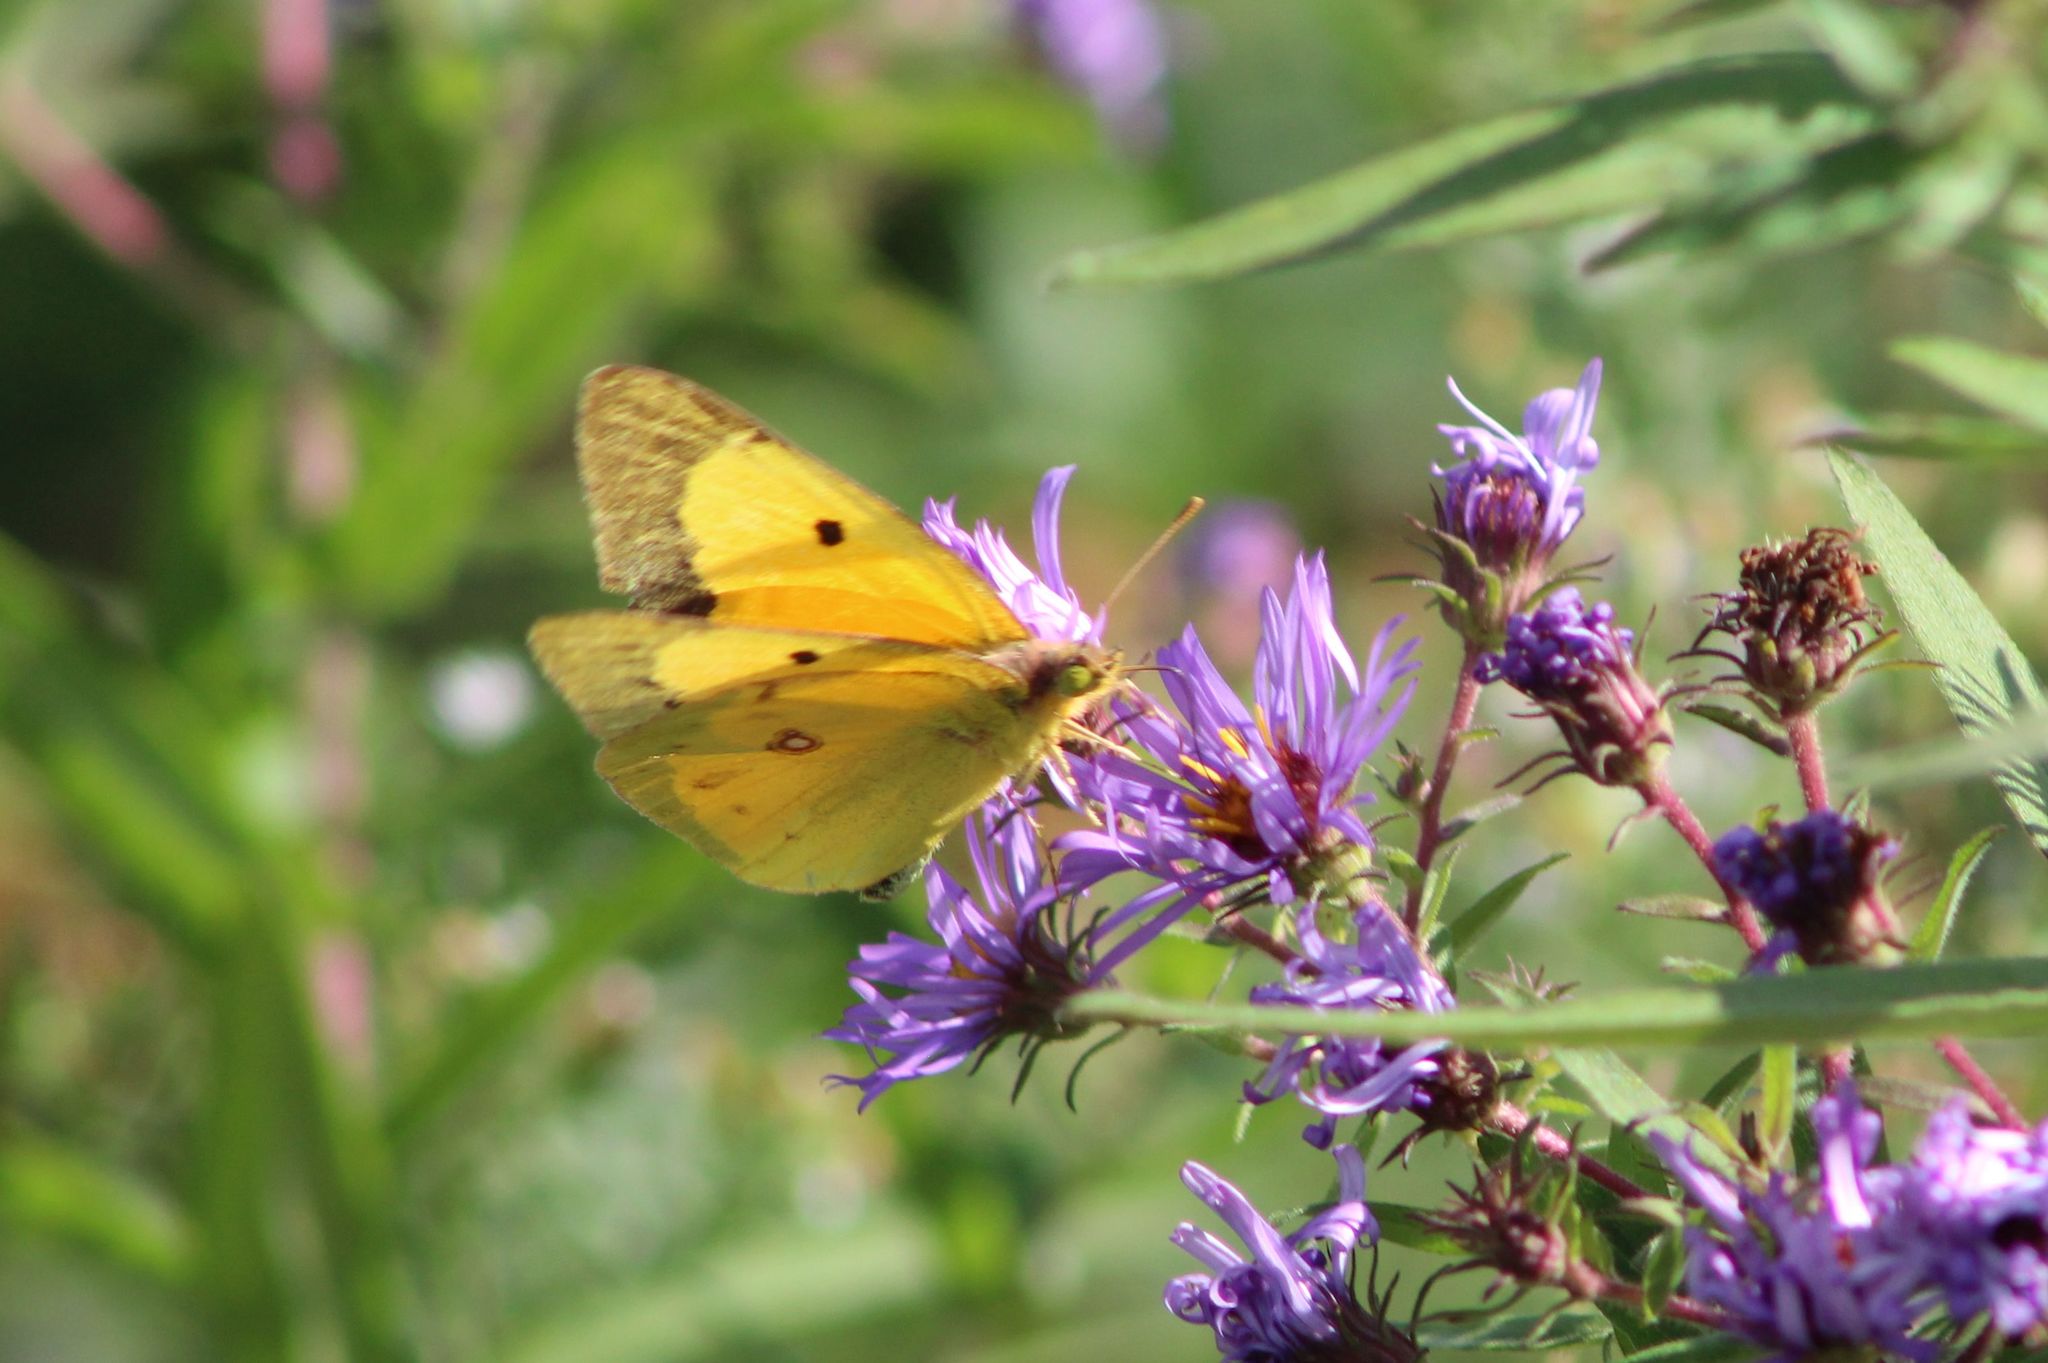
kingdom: Animalia
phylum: Arthropoda
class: Insecta
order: Lepidoptera
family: Pieridae
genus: Colias
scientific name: Colias eurytheme
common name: Alfalfa butterfly
